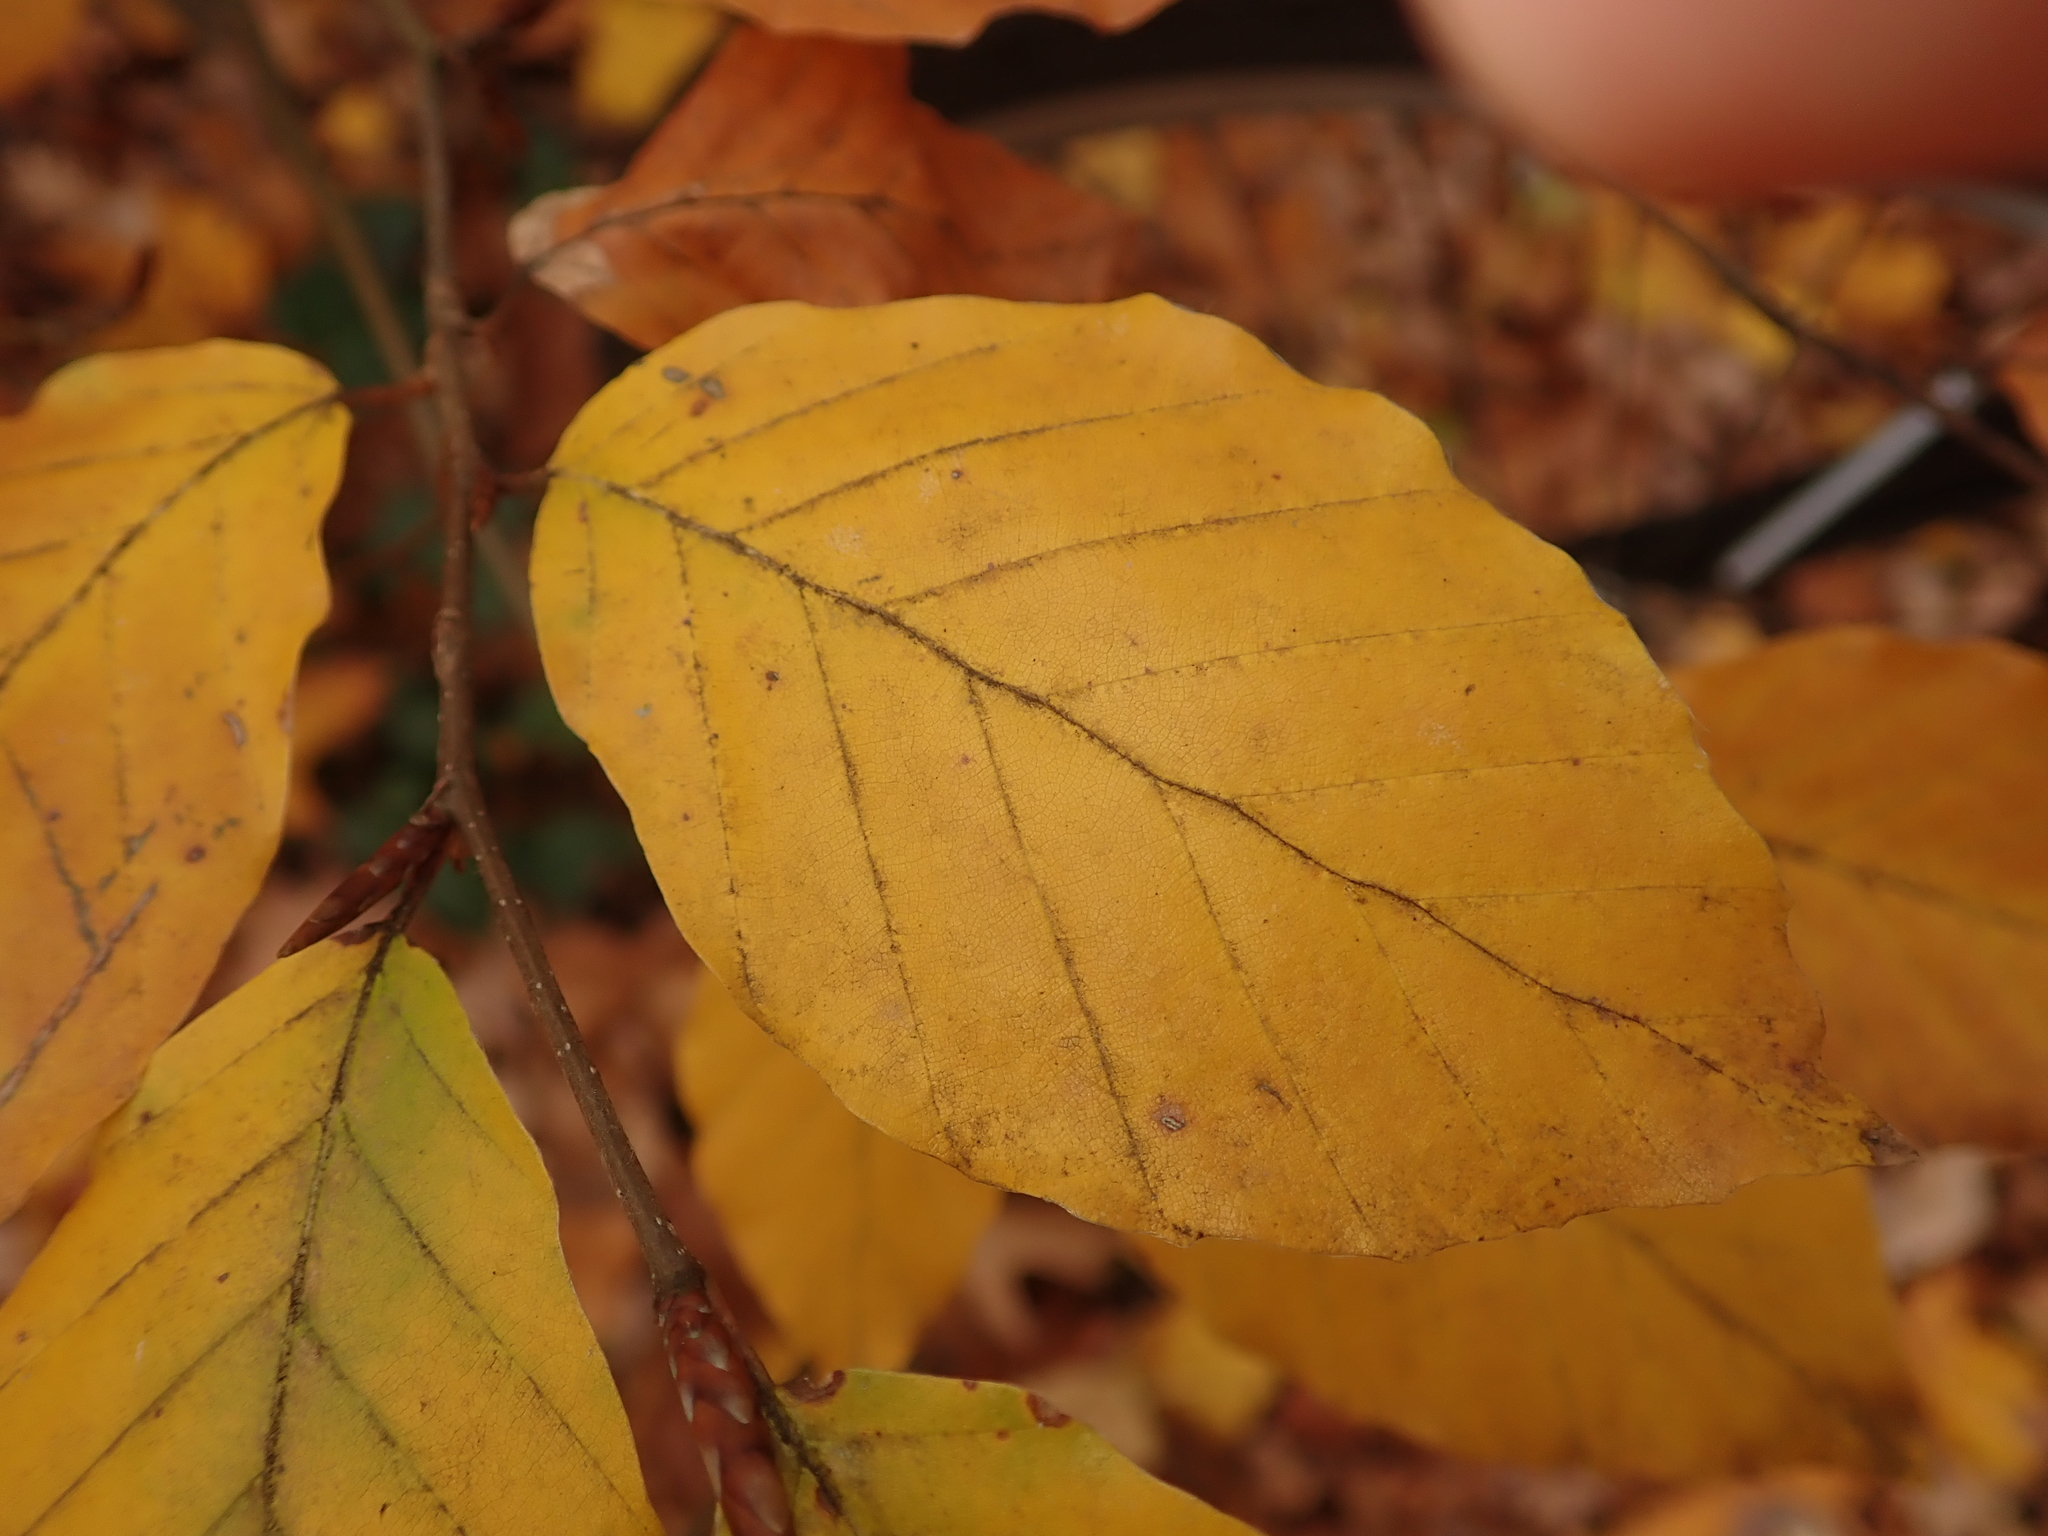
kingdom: Plantae
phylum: Tracheophyta
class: Magnoliopsida
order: Fagales
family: Fagaceae
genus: Fagus
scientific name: Fagus sylvatica
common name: Beech
